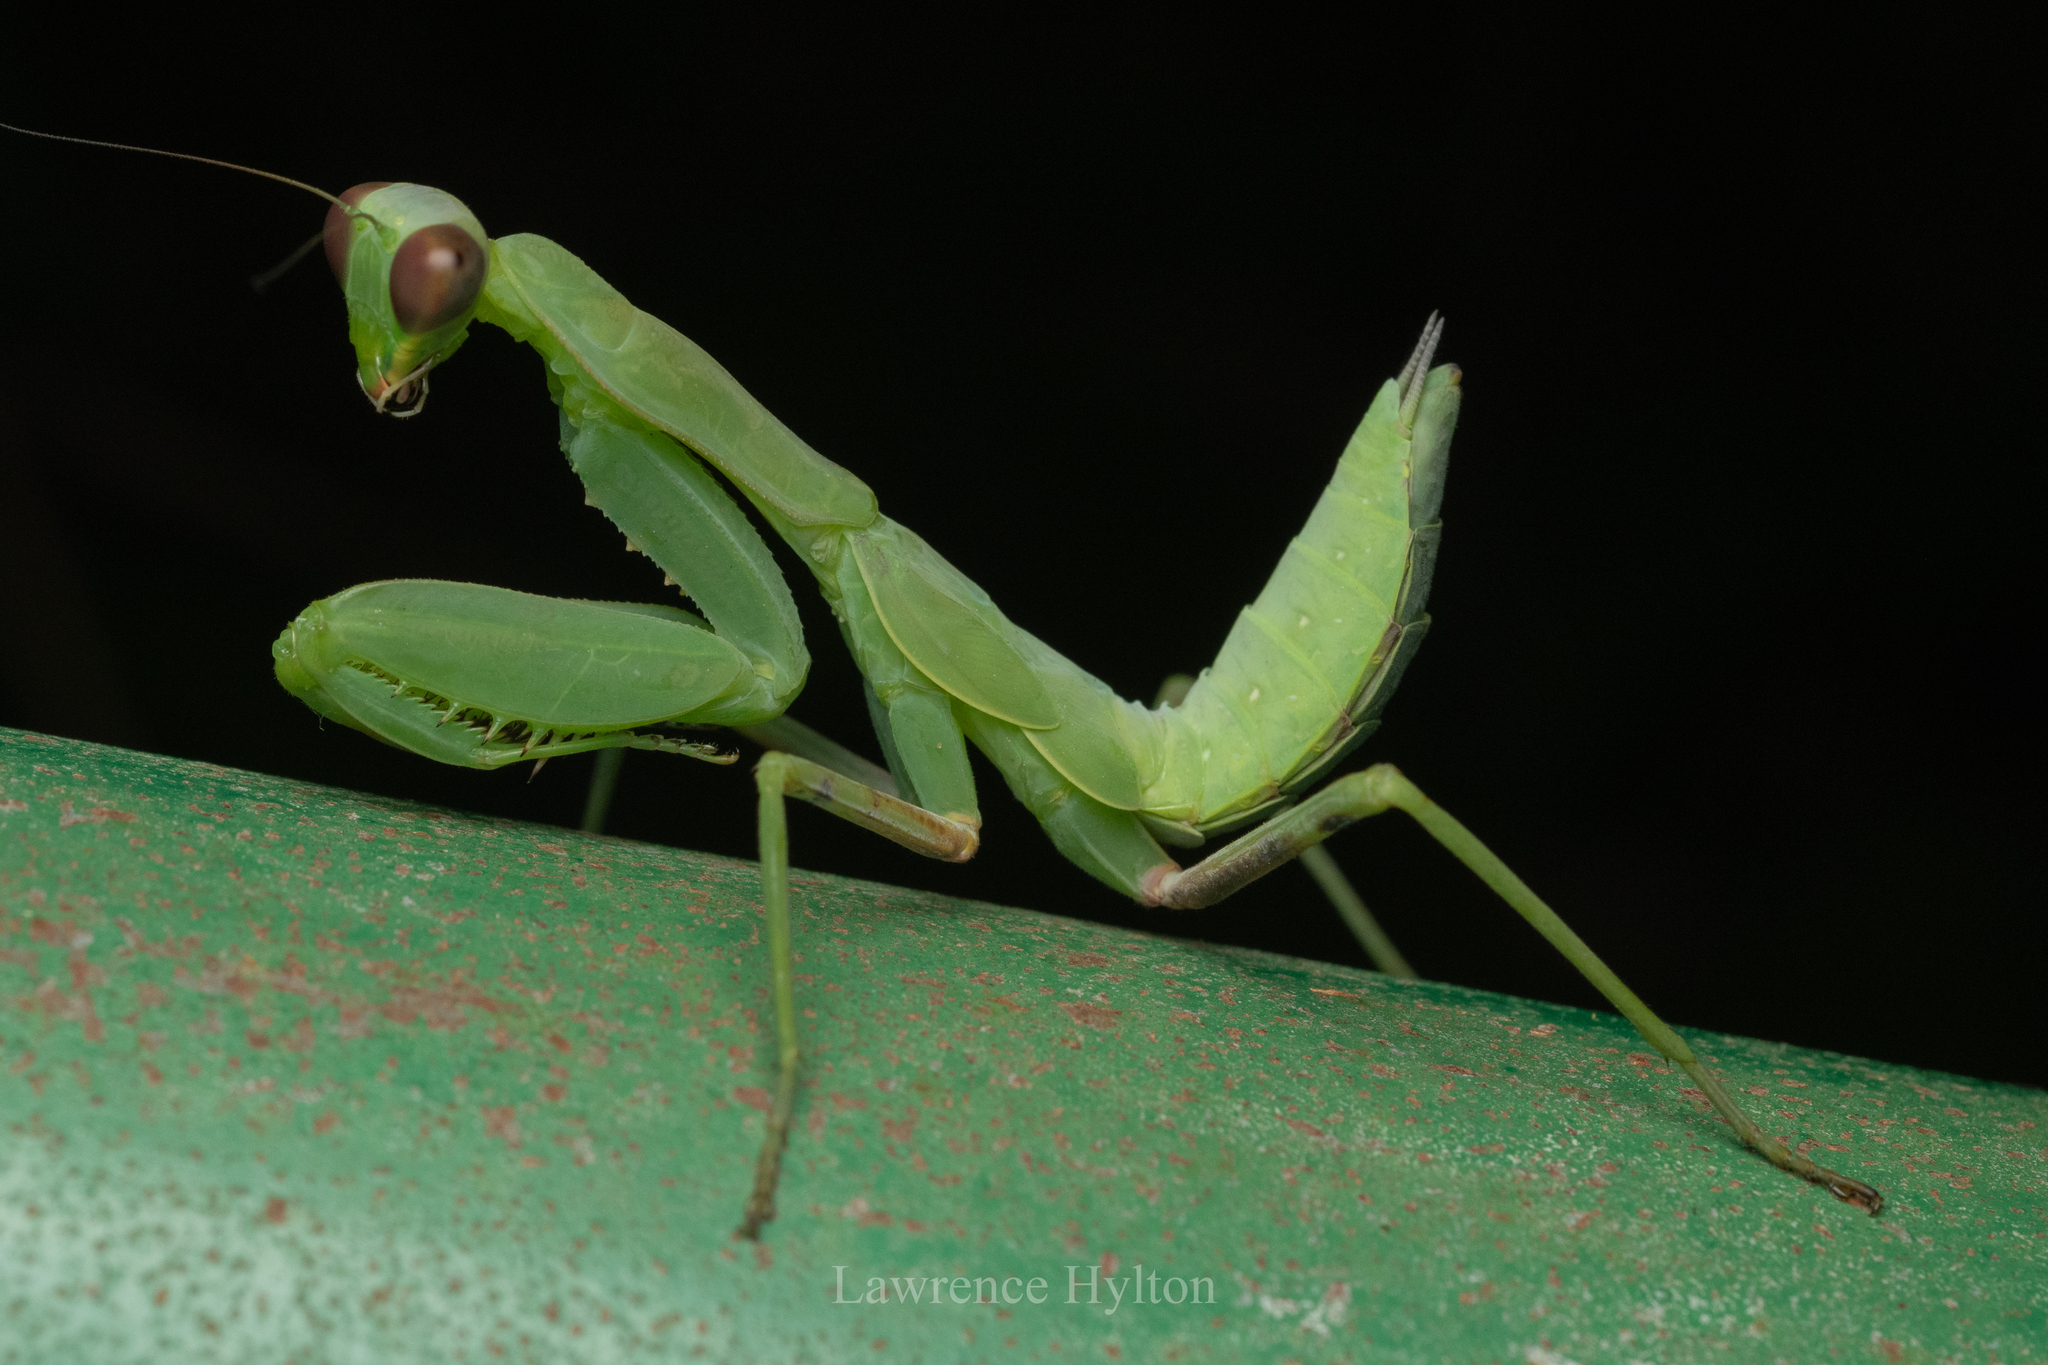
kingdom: Animalia
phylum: Arthropoda
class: Insecta
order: Mantodea
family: Mantidae
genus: Hierodula
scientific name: Hierodula patellifera
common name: Asian mantis
